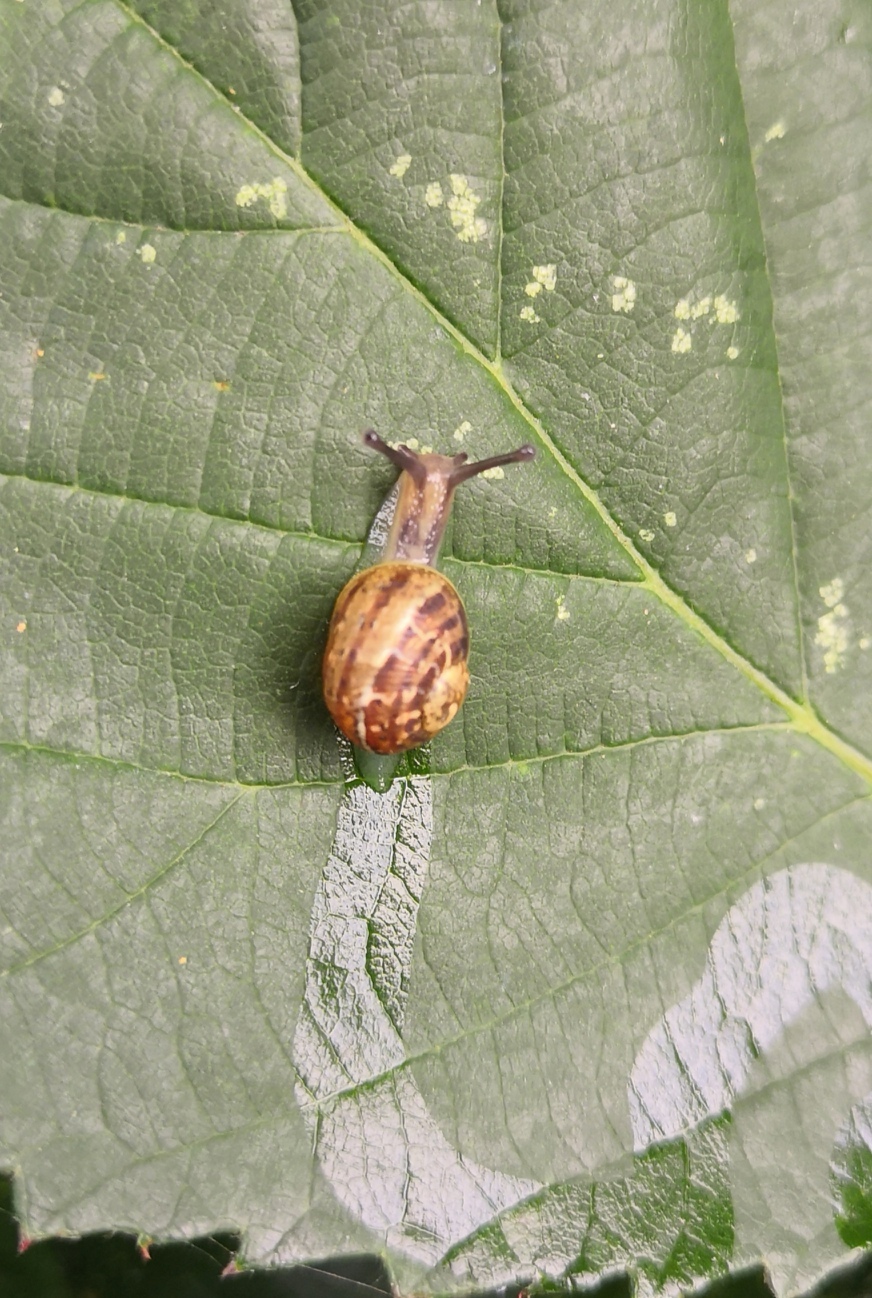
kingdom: Animalia
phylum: Mollusca
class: Gastropoda
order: Stylommatophora
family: Helicidae
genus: Cornu
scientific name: Cornu aspersum
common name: Brown garden snail
